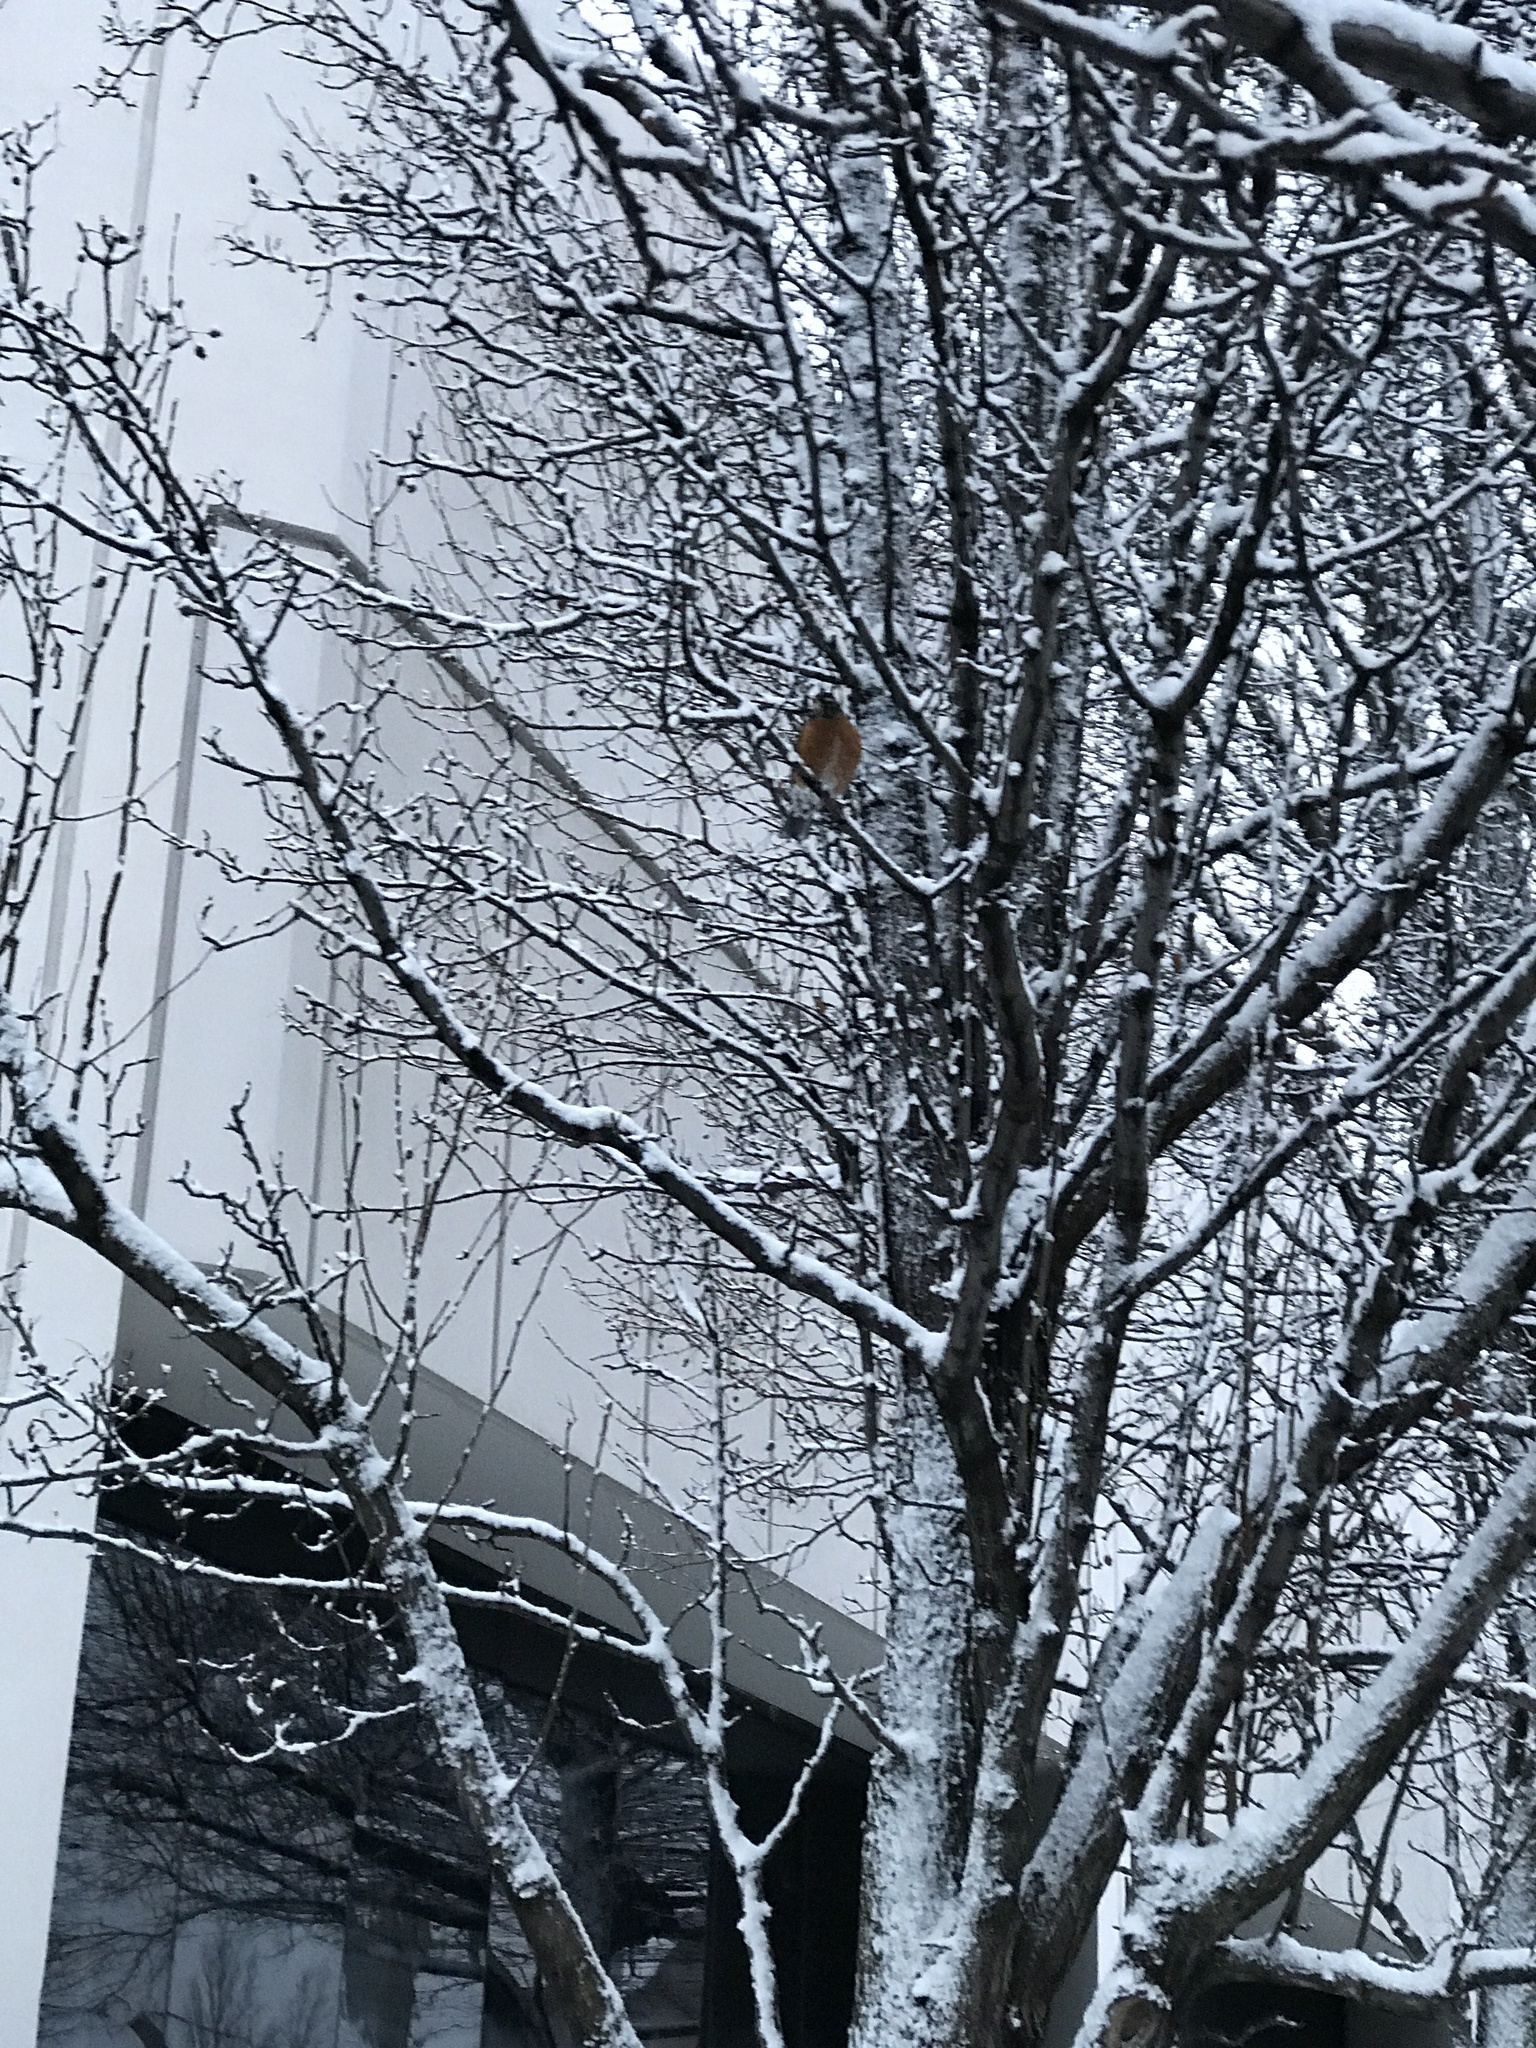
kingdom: Animalia
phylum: Chordata
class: Aves
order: Passeriformes
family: Turdidae
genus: Turdus
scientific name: Turdus migratorius
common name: American robin
